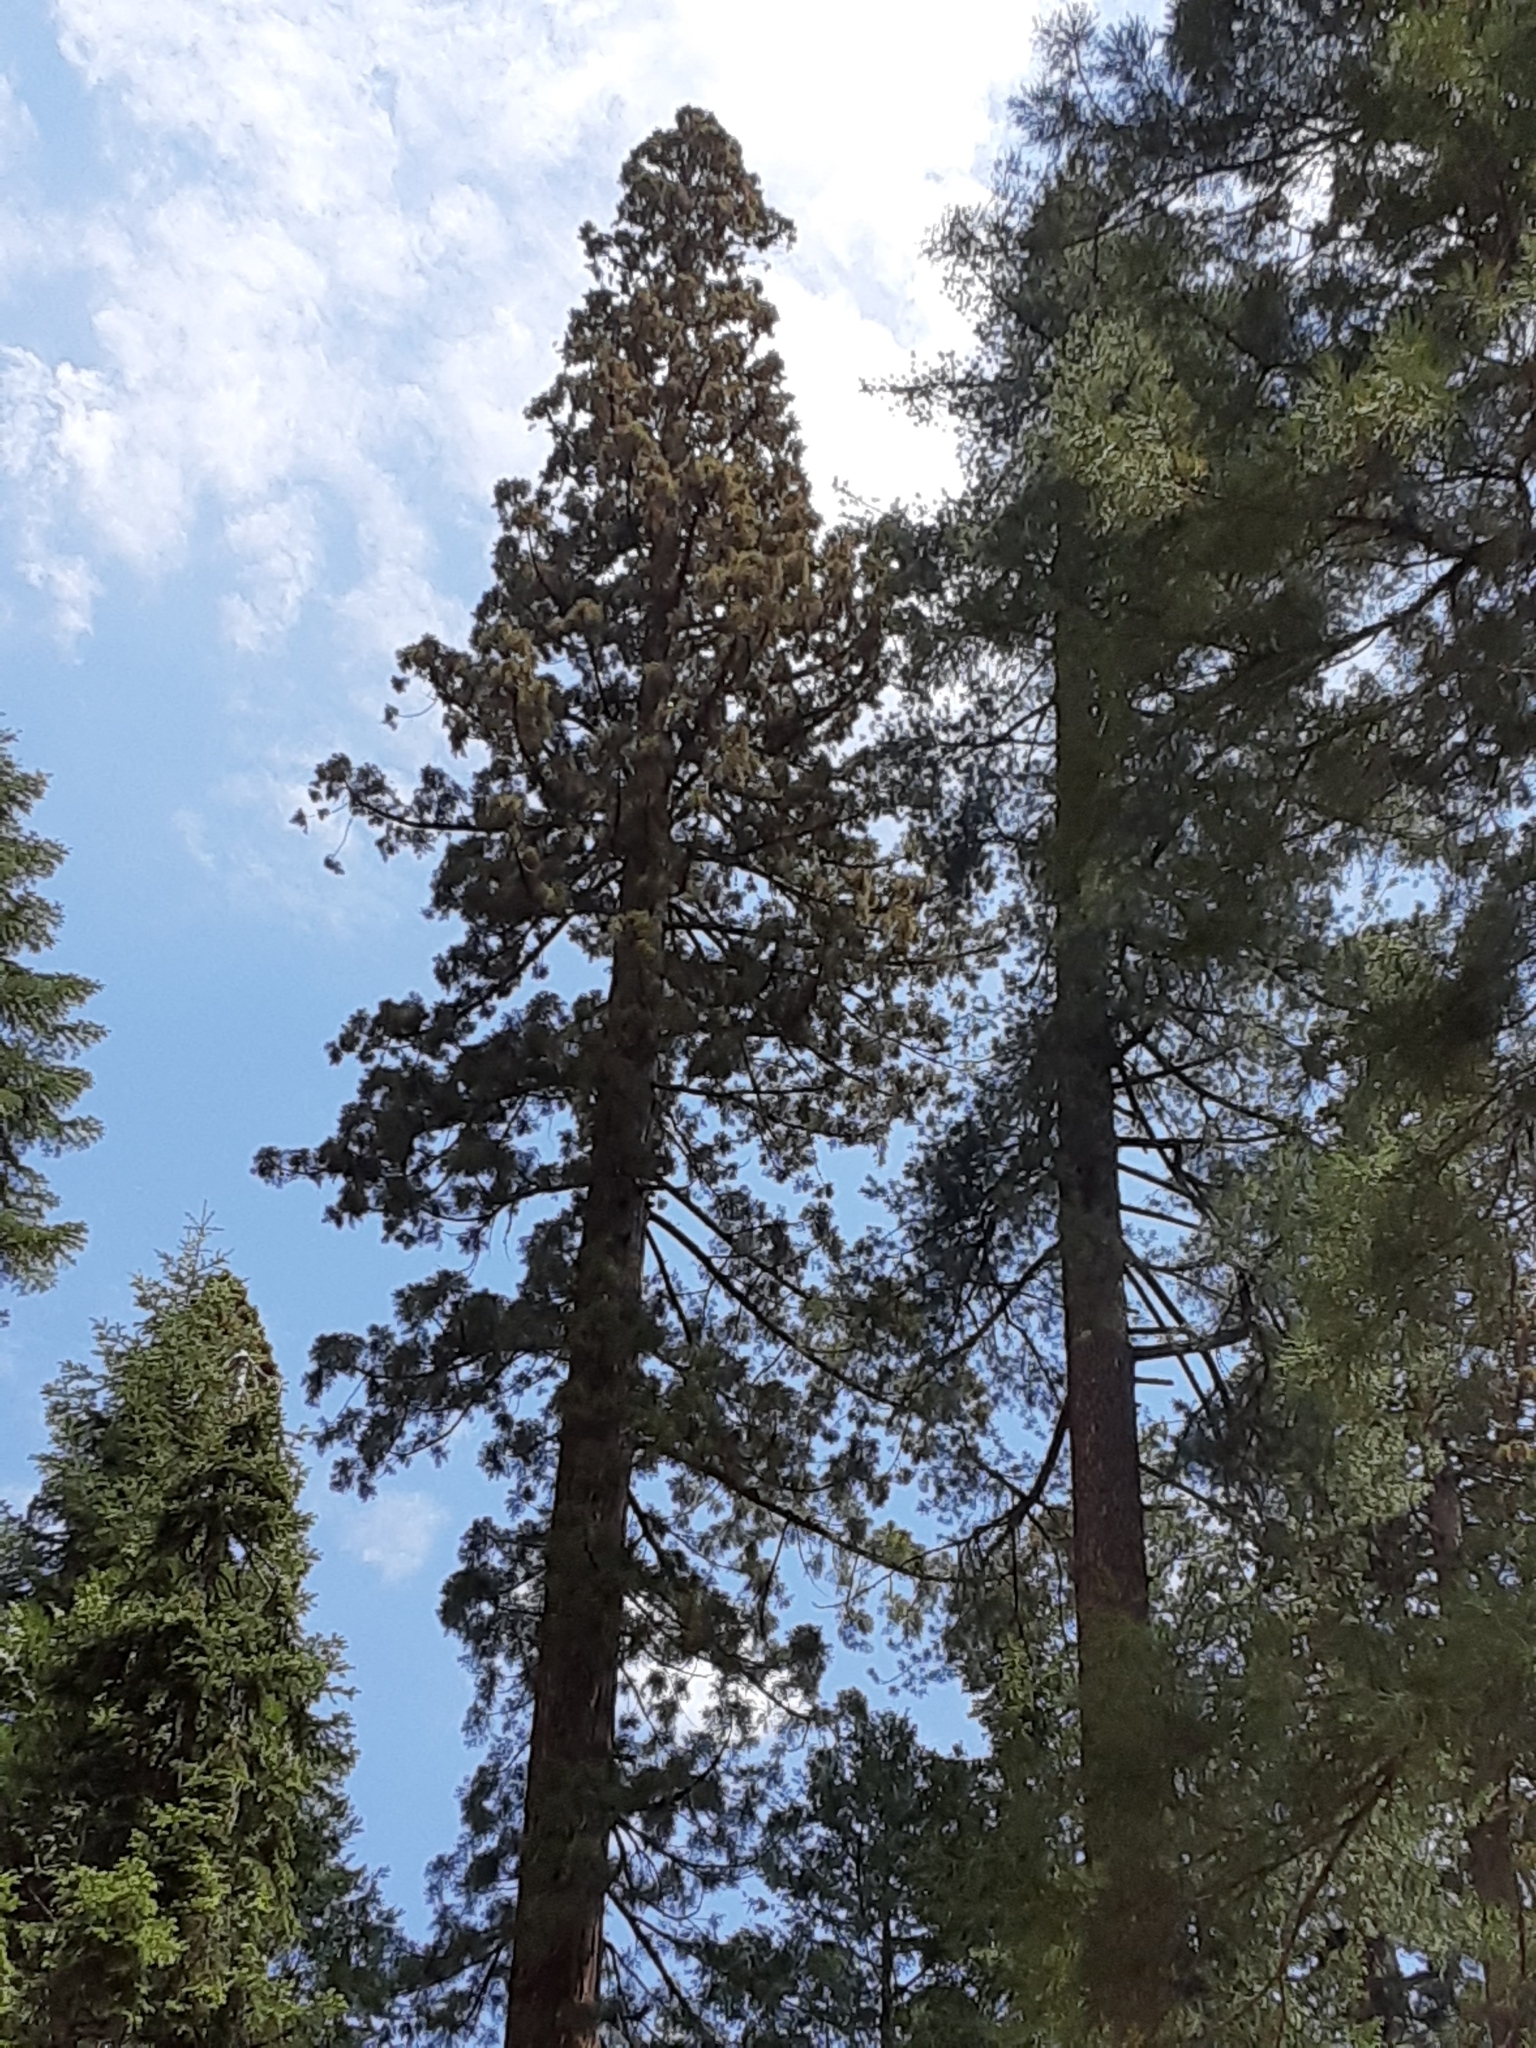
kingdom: Plantae
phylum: Tracheophyta
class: Pinopsida
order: Pinales
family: Cupressaceae
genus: Sequoiadendron
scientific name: Sequoiadendron giganteum
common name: Wellingtonia
